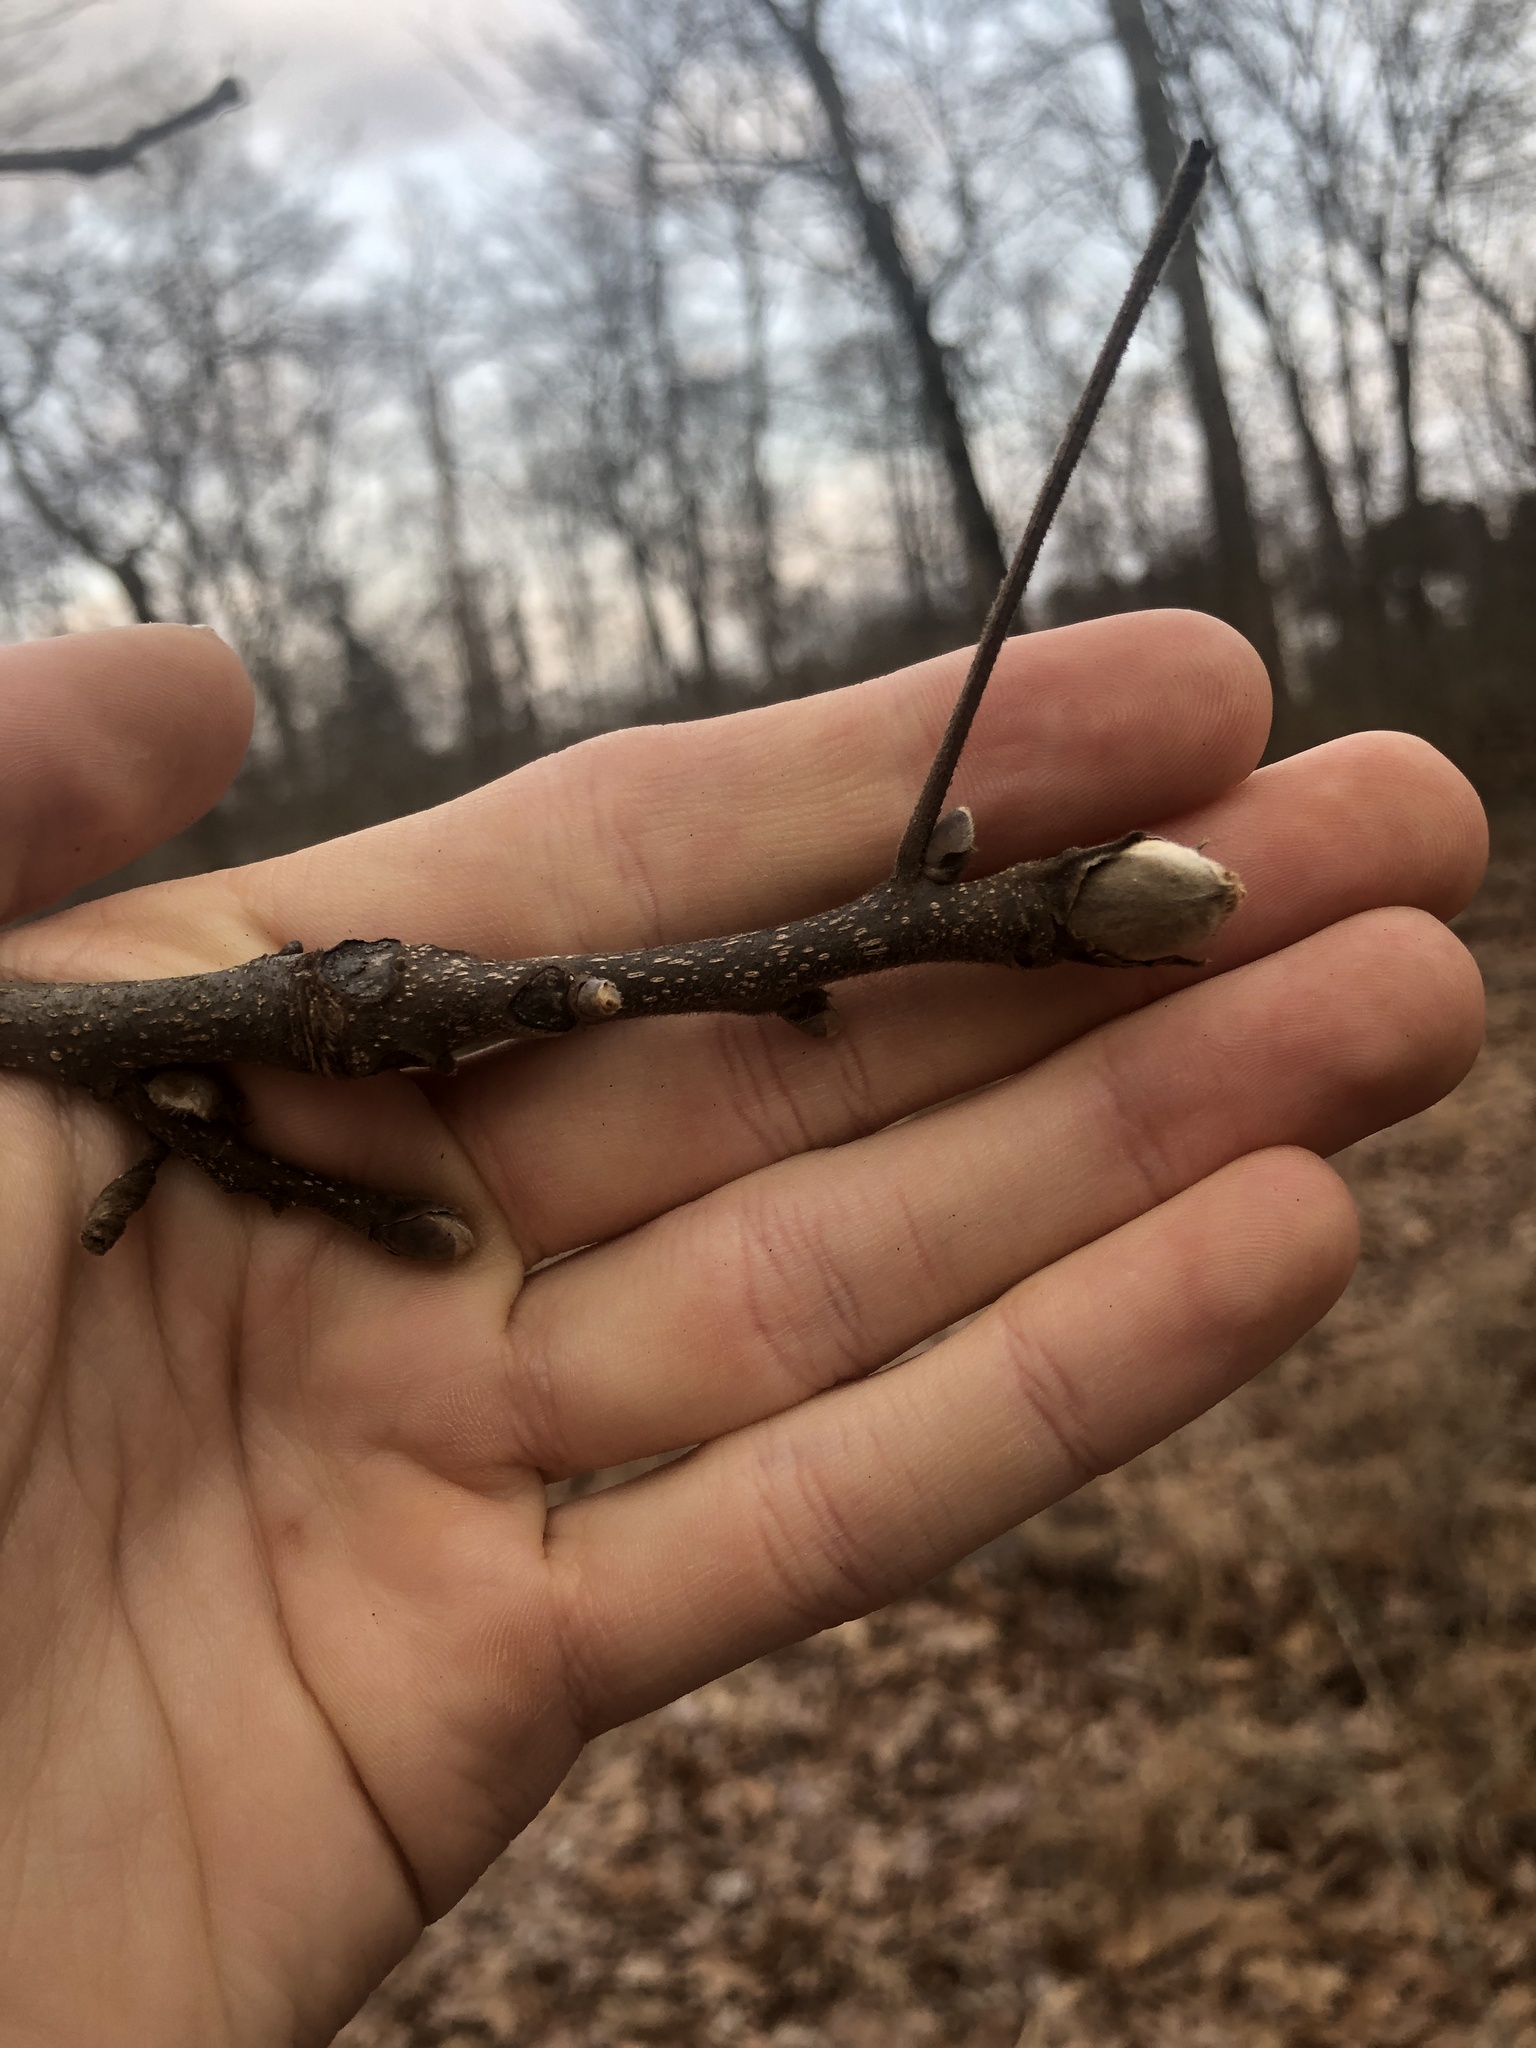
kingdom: Plantae
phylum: Tracheophyta
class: Magnoliopsida
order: Fagales
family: Juglandaceae
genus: Carya
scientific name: Carya ovata
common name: Shagbark hickory
